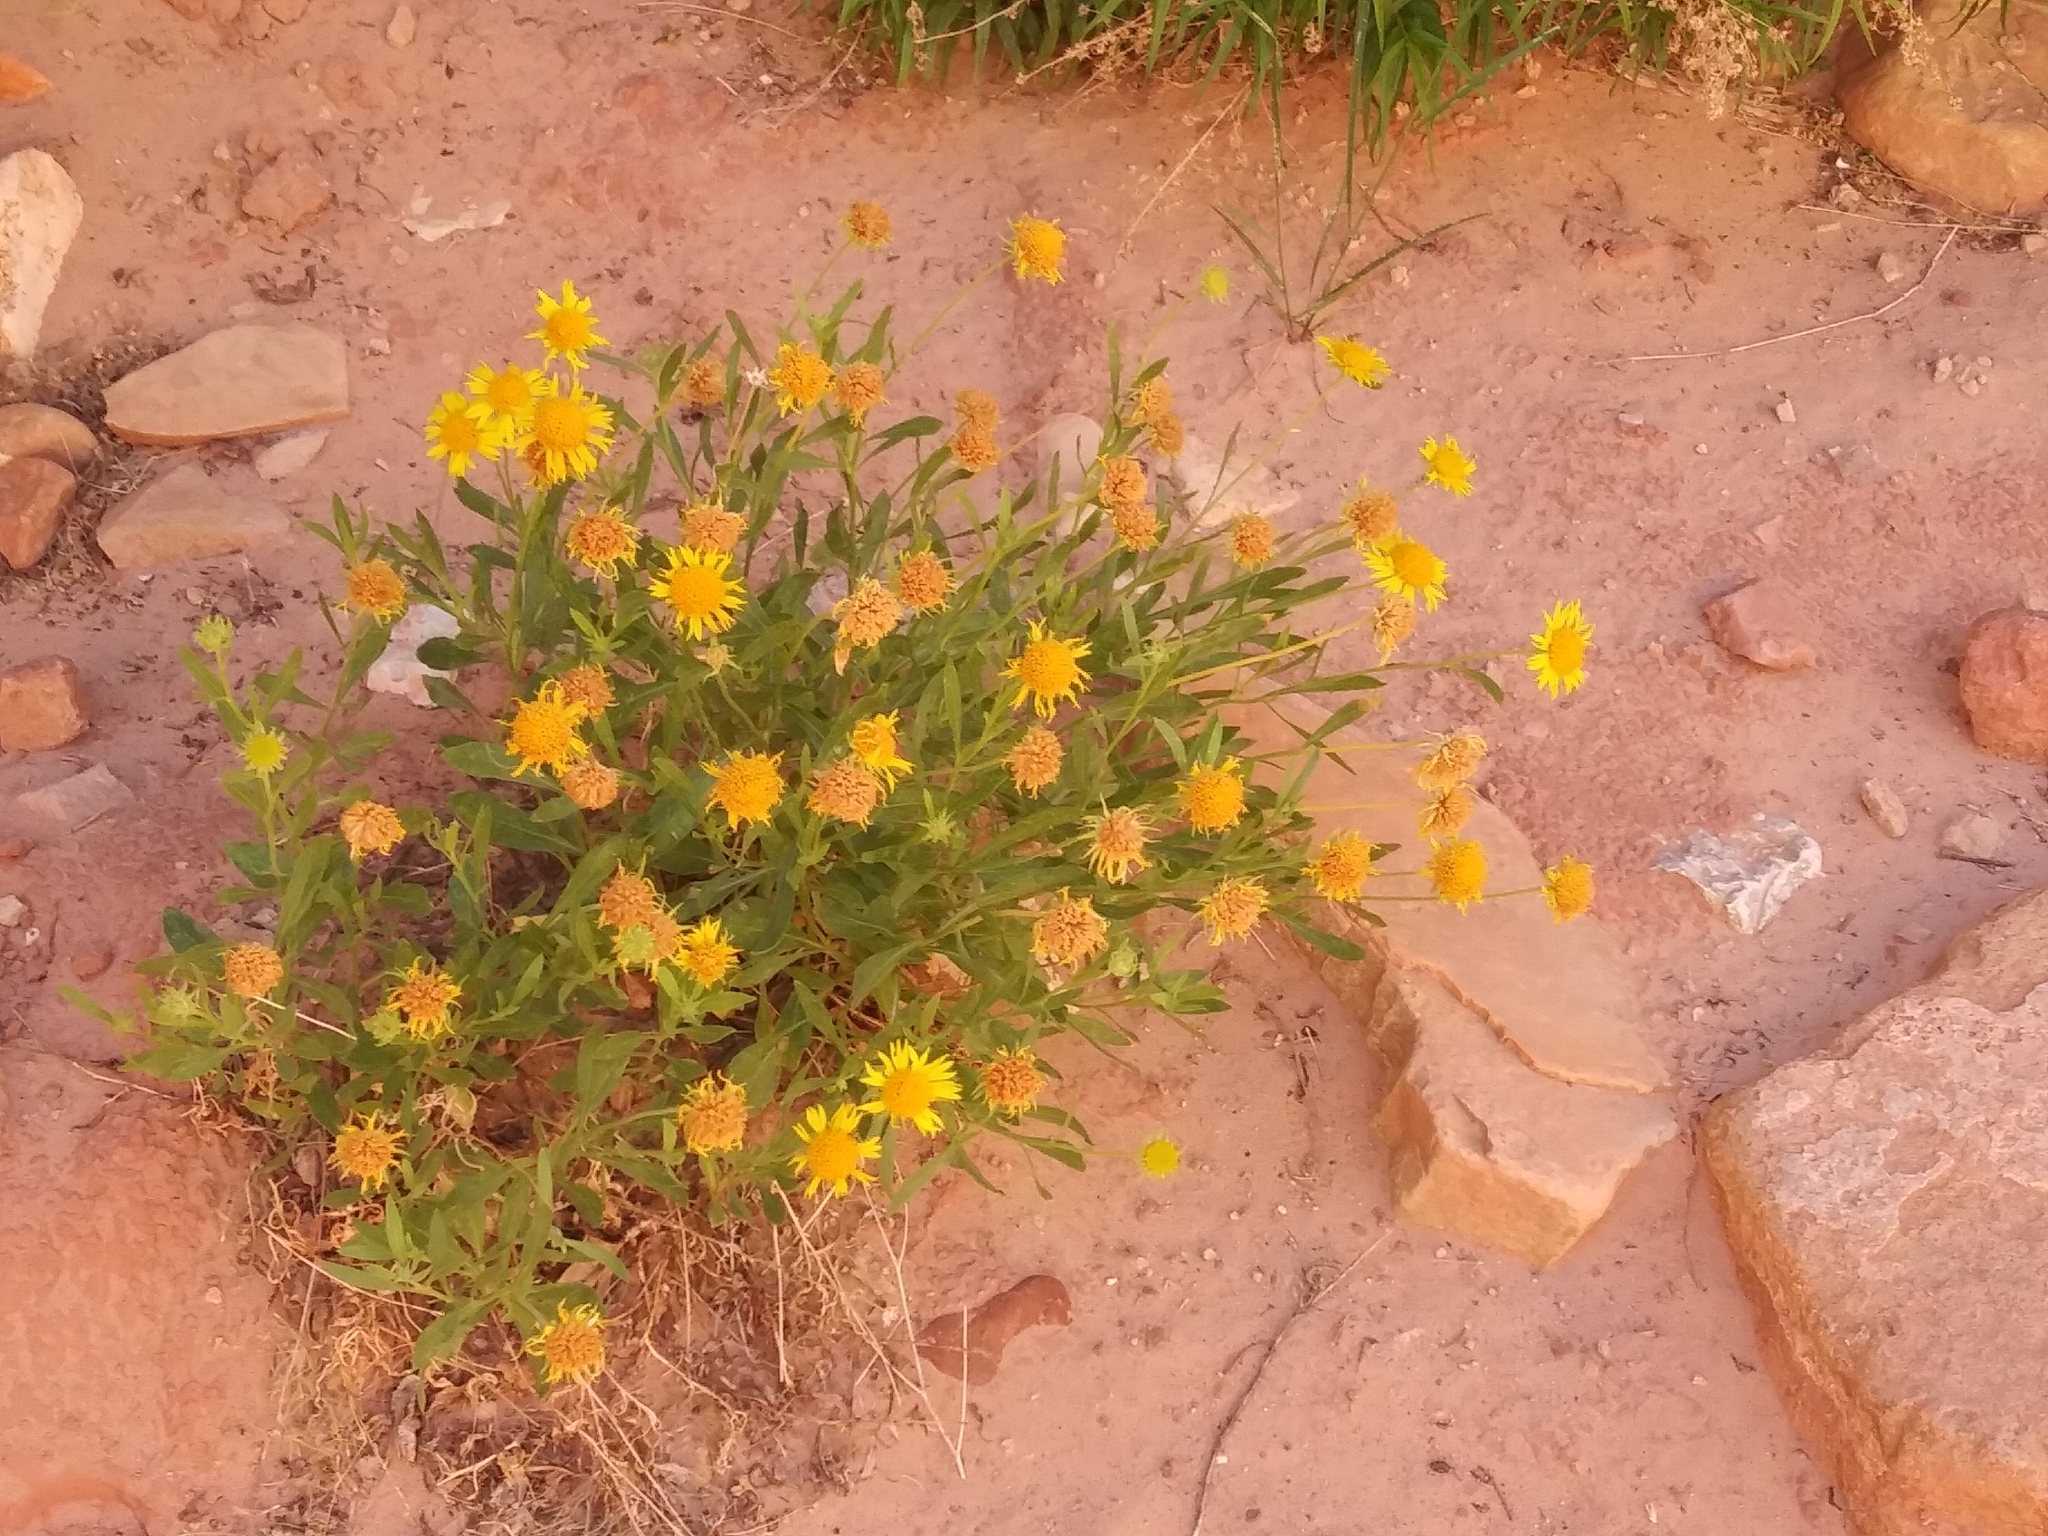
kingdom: Plantae
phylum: Tracheophyta
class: Magnoliopsida
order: Asterales
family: Asteraceae
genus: Gaillardia
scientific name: Gaillardia spathulata
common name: Basin blanket-flower
